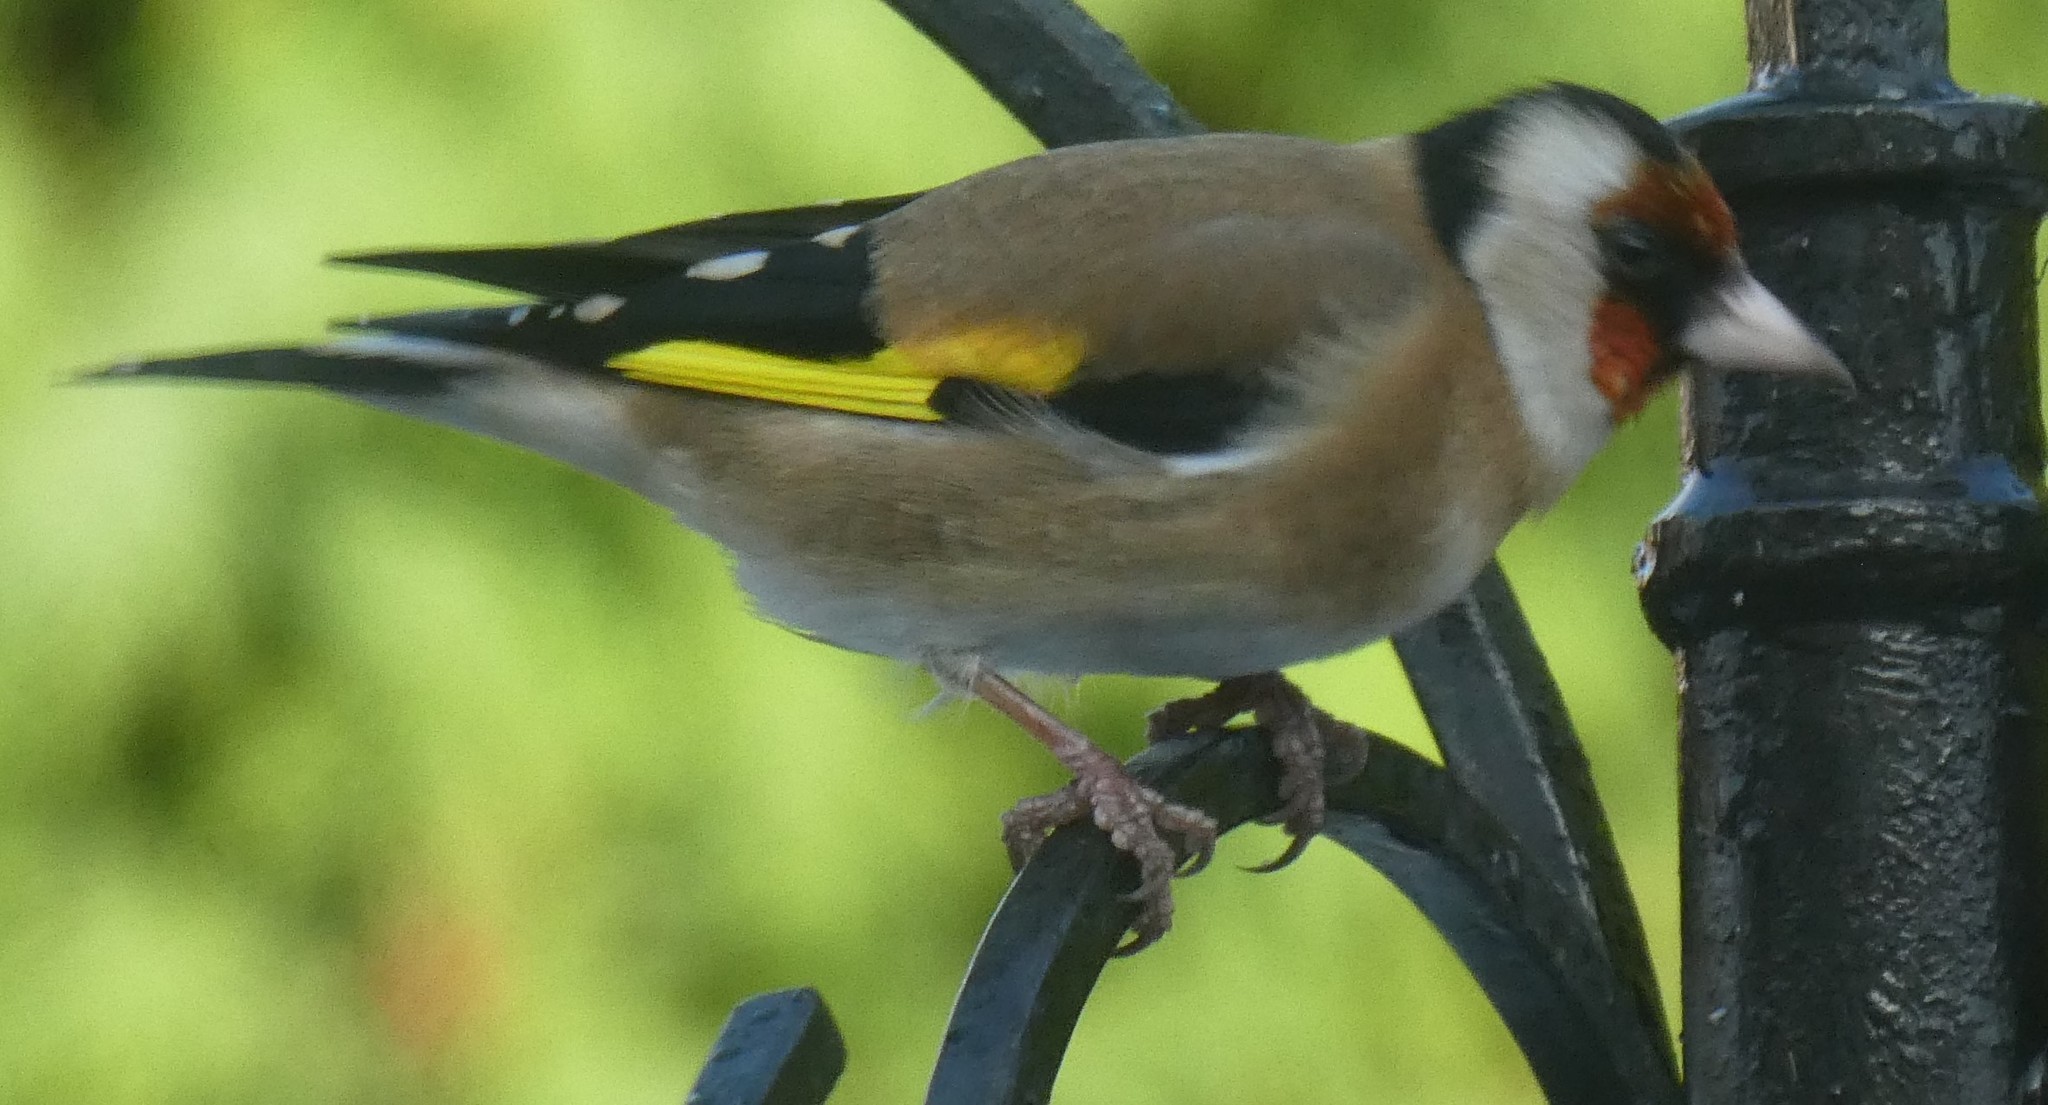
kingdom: Animalia
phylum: Chordata
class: Aves
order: Passeriformes
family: Fringillidae
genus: Carduelis
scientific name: Carduelis carduelis
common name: European goldfinch
